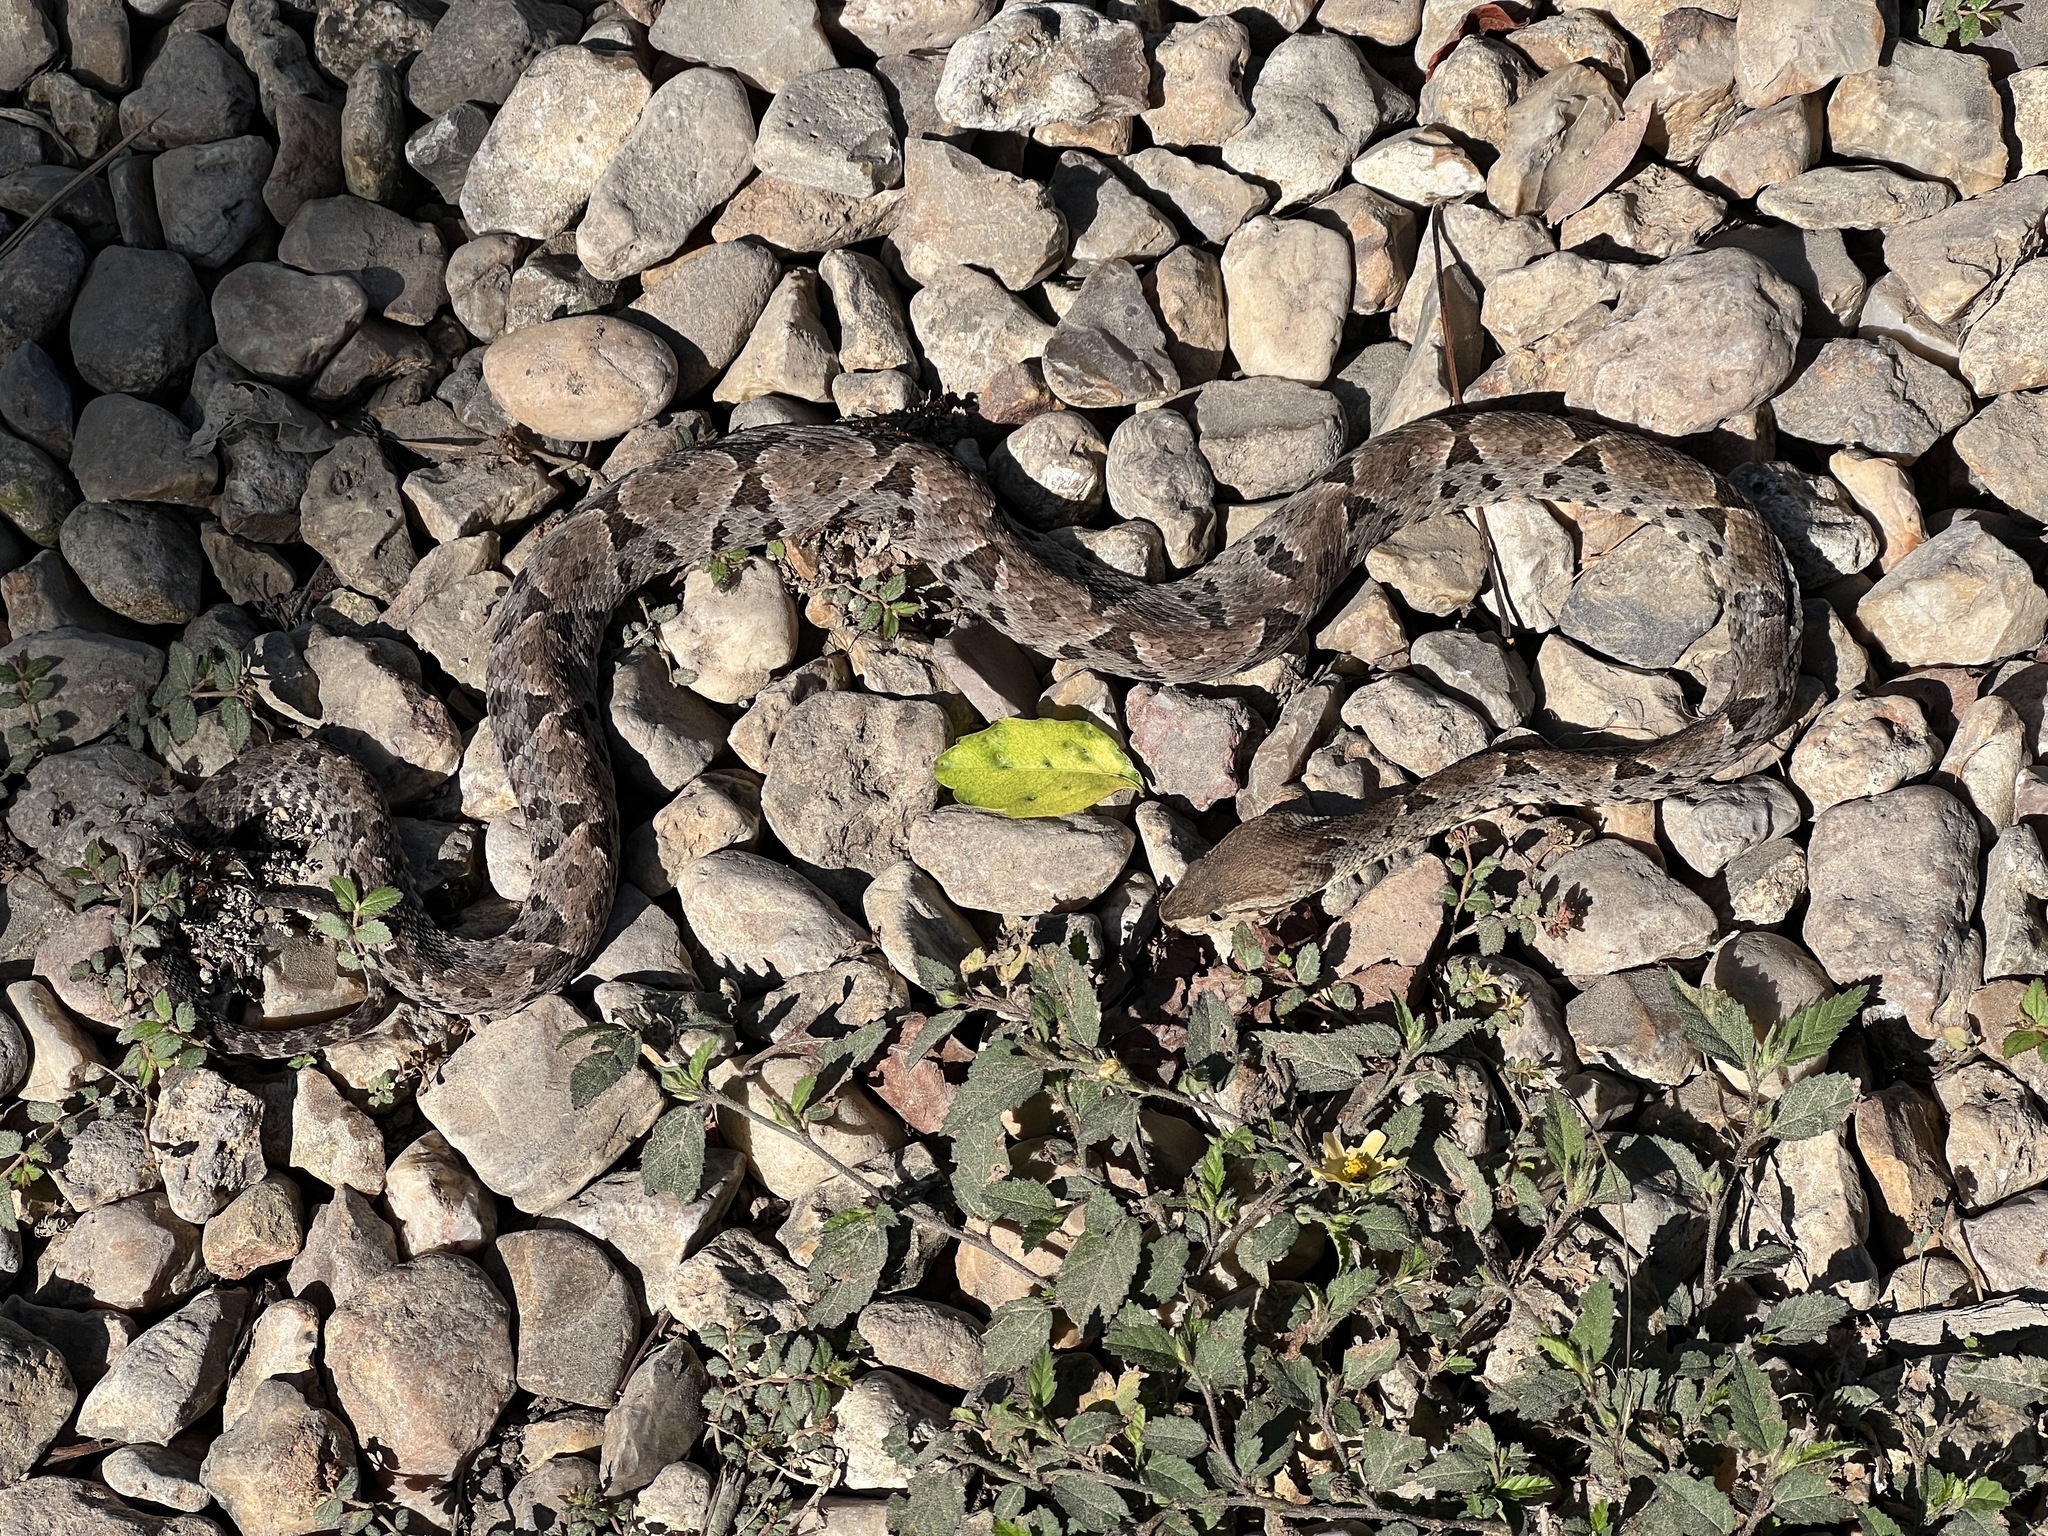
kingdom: Animalia
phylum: Chordata
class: Squamata
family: Viperidae
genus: Bothrops
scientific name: Bothrops asper
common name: Terciopelo
